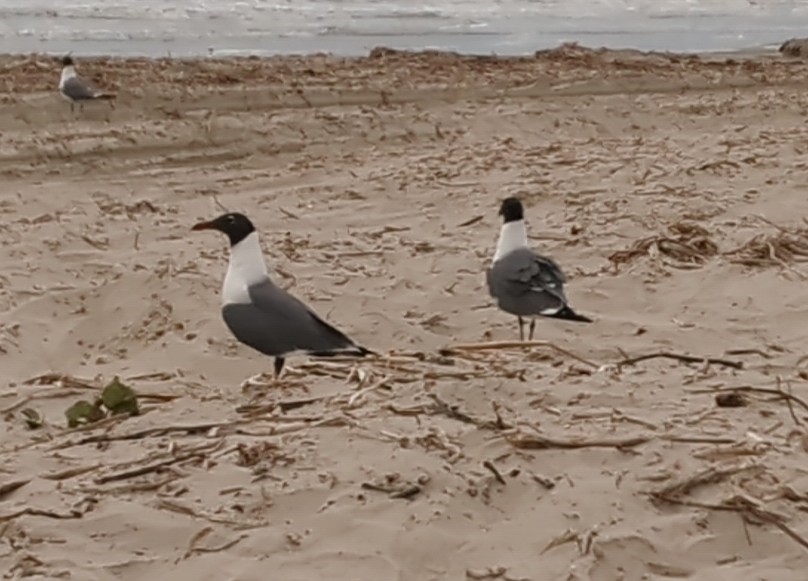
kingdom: Animalia
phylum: Chordata
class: Aves
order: Charadriiformes
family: Laridae
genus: Leucophaeus
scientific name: Leucophaeus atricilla
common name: Laughing gull
